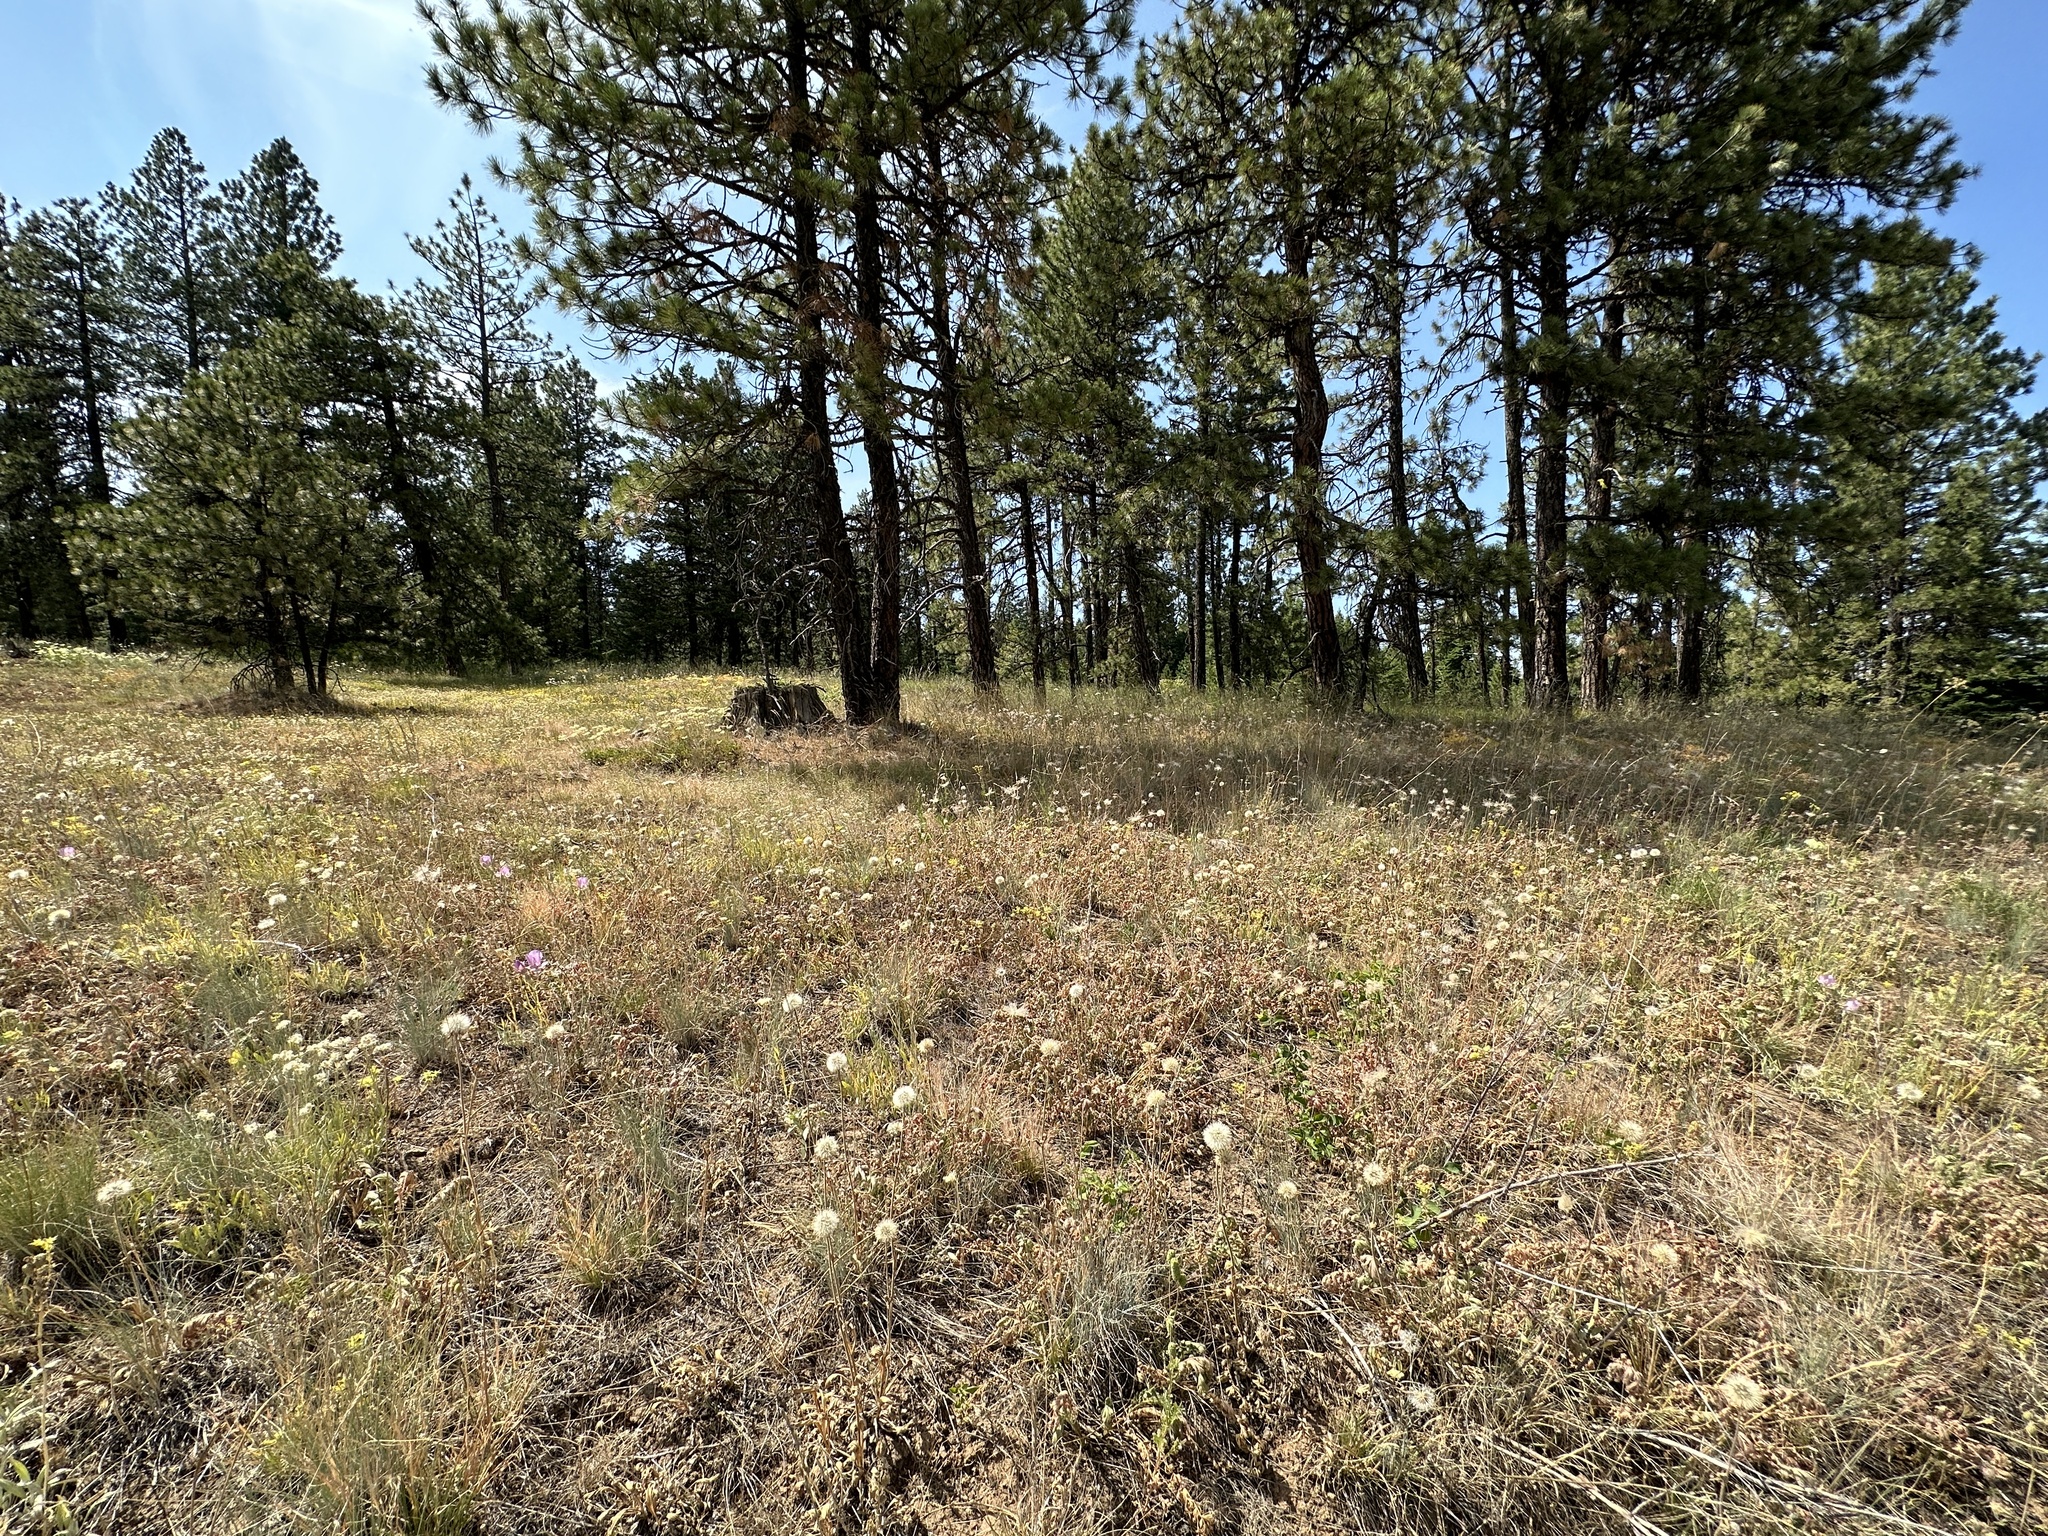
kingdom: Plantae
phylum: Tracheophyta
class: Liliopsida
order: Liliales
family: Liliaceae
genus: Calochortus
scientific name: Calochortus nitidus
